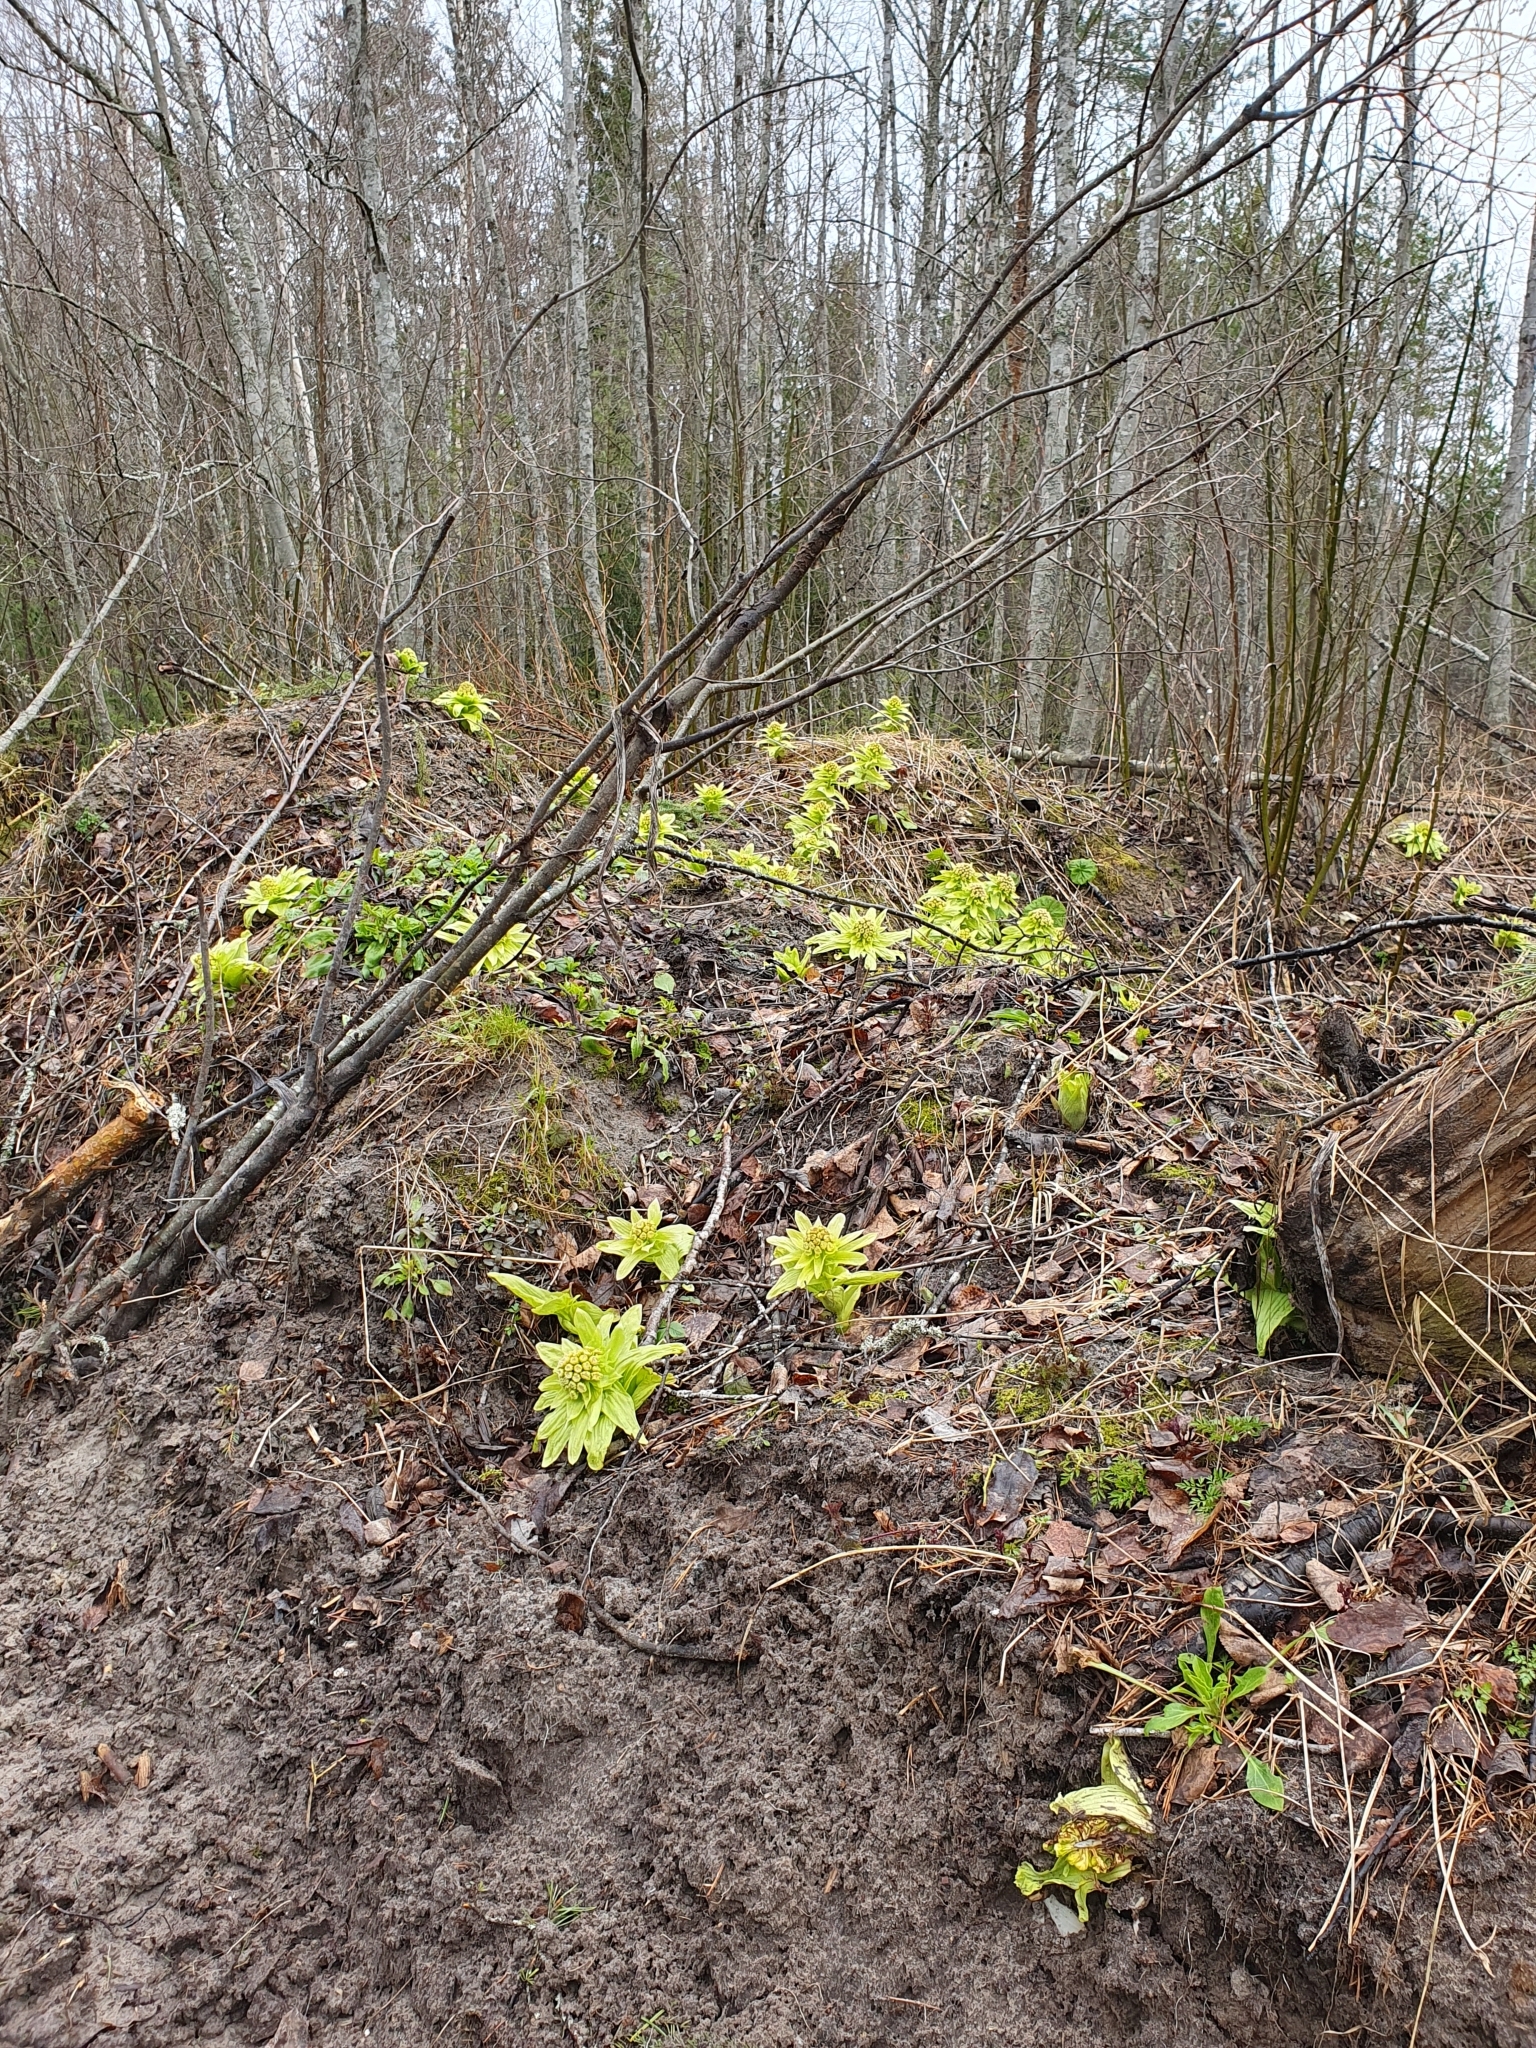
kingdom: Plantae
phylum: Tracheophyta
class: Magnoliopsida
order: Asterales
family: Asteraceae
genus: Petasites
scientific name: Petasites japonicus
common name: Giant butterbur
